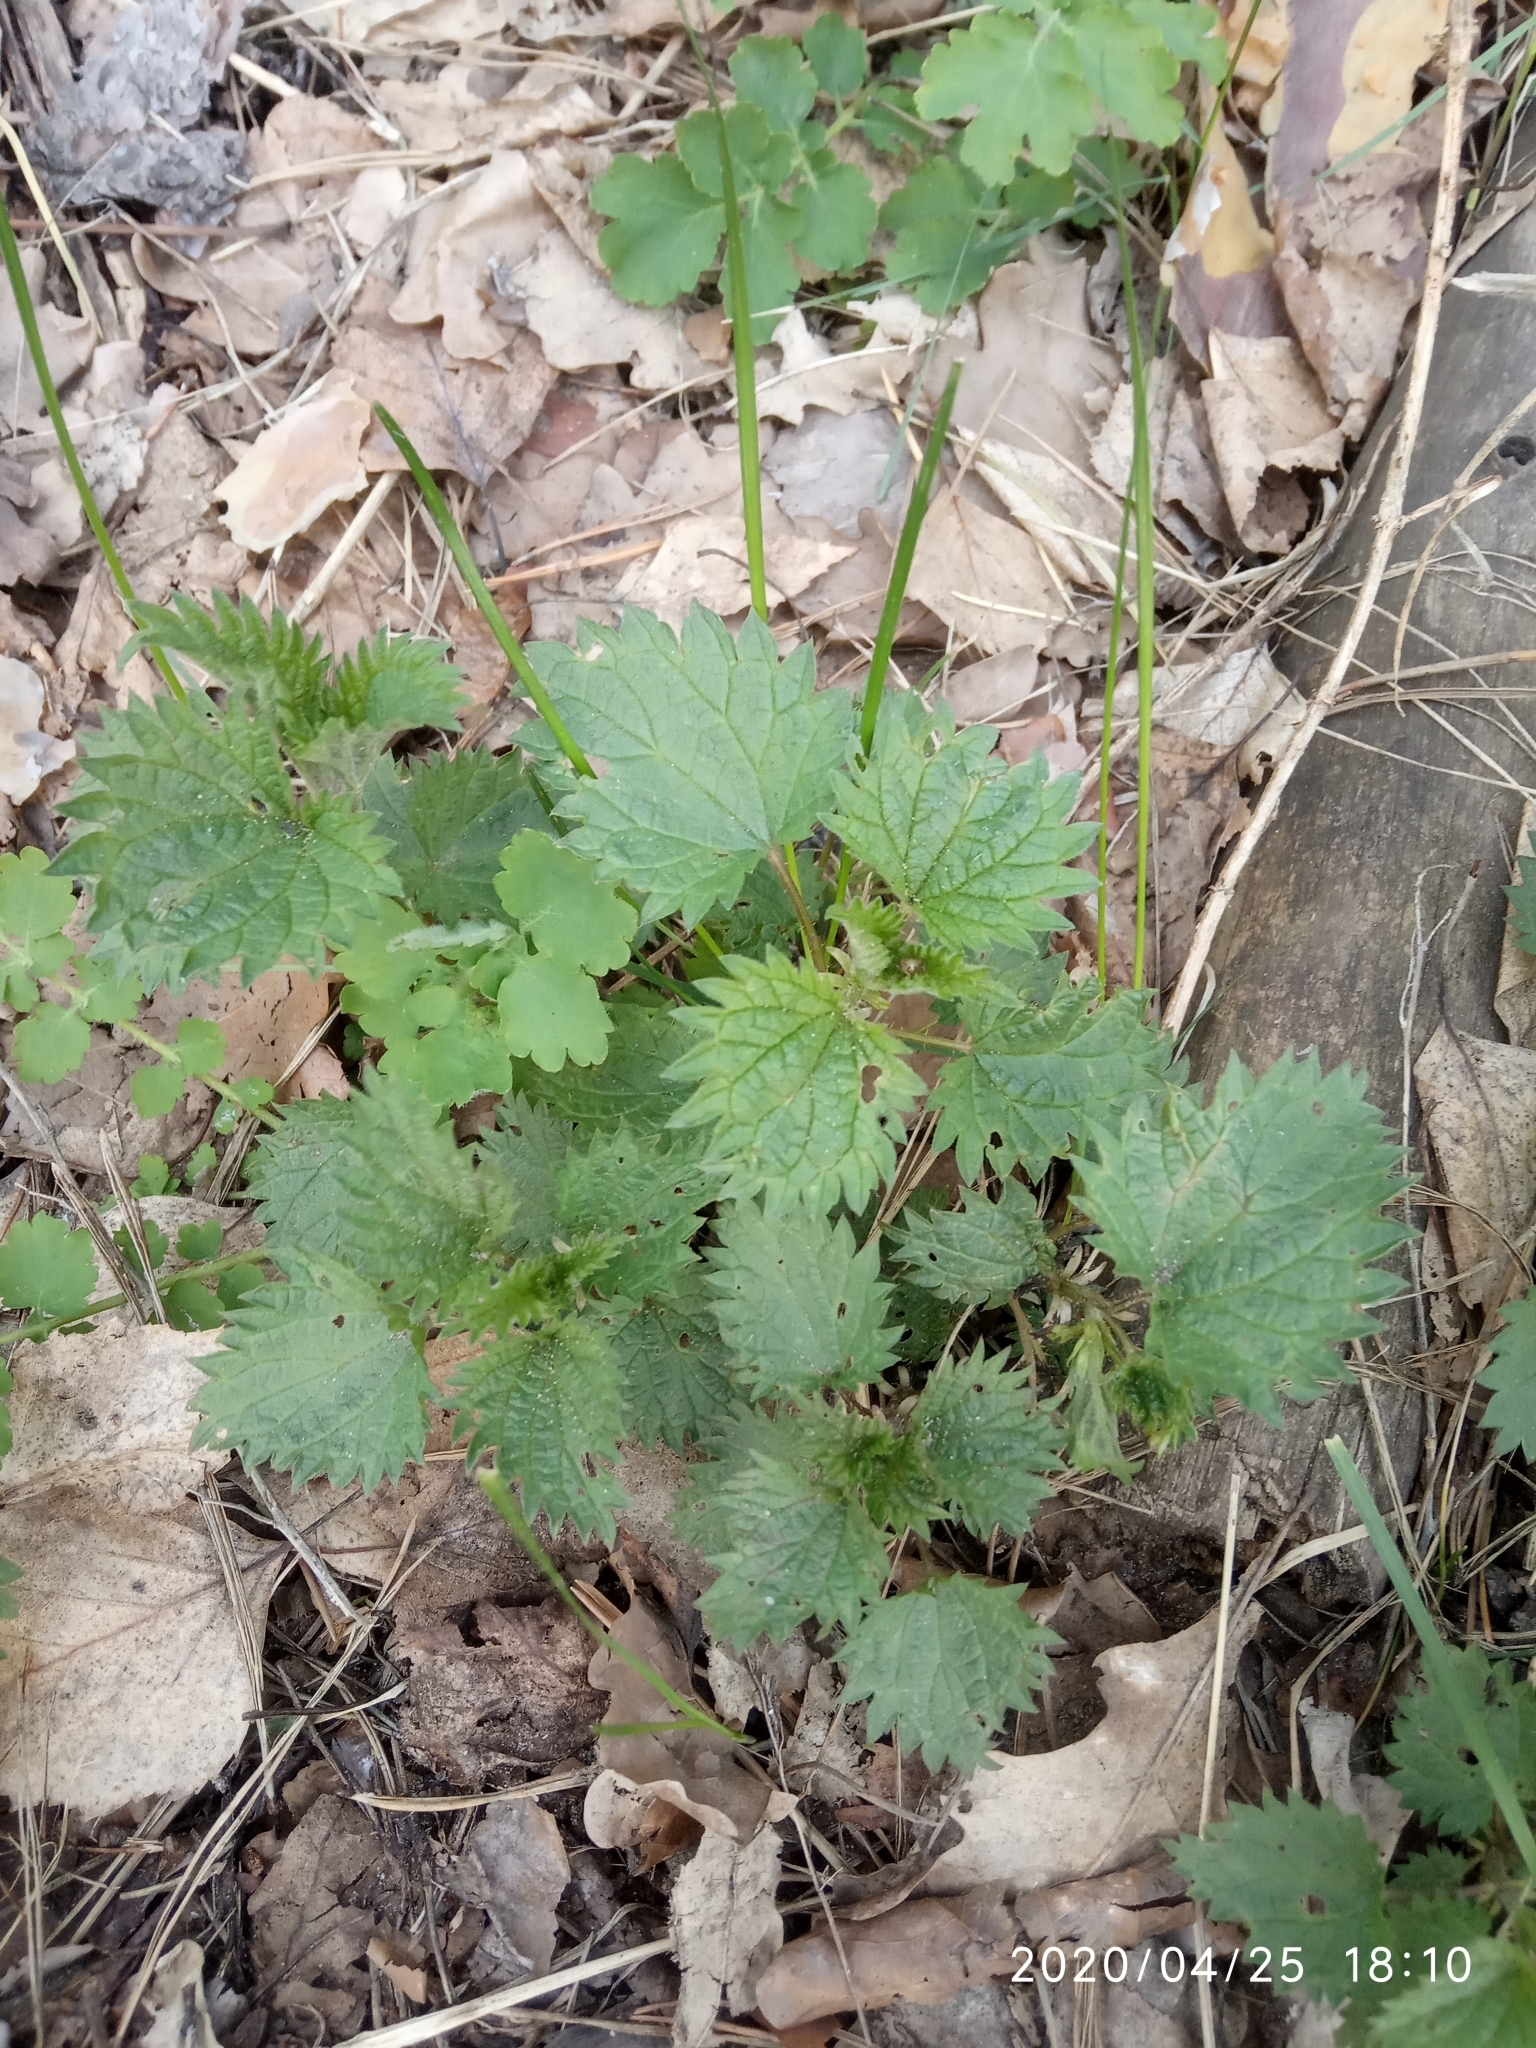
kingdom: Plantae
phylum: Tracheophyta
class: Magnoliopsida
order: Rosales
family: Urticaceae
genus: Urtica
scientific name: Urtica dioica
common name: Common nettle
